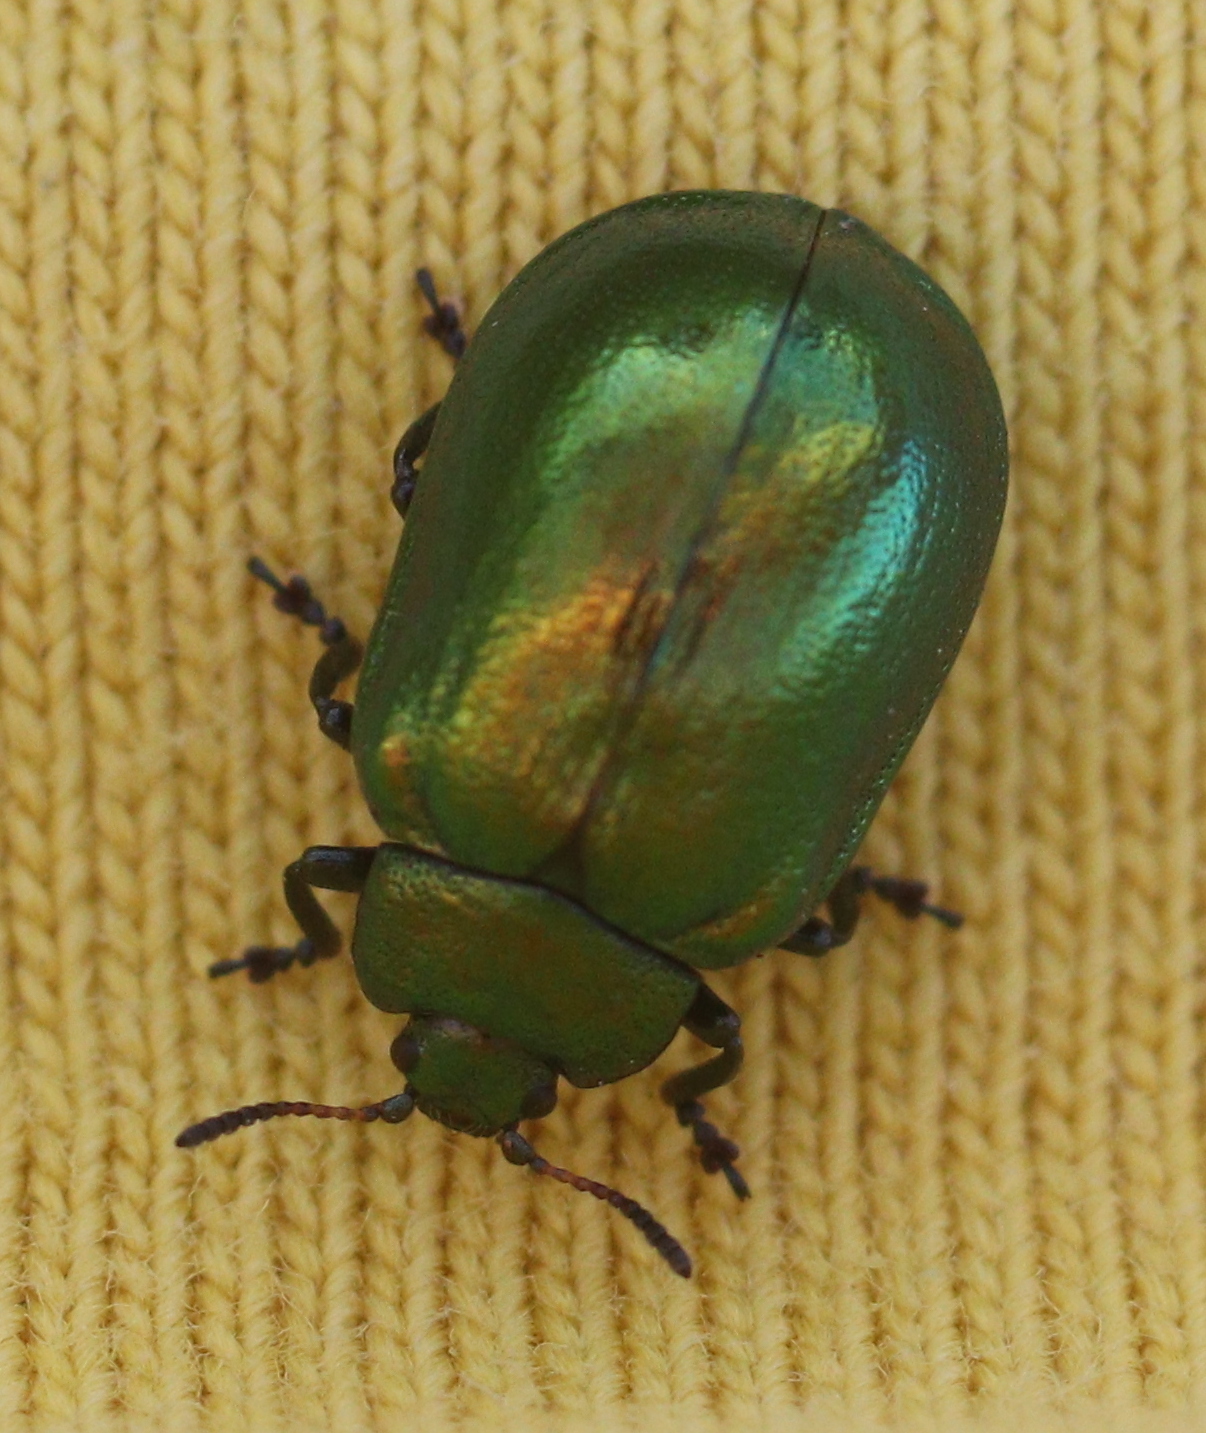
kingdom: Animalia
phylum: Arthropoda
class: Insecta
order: Coleoptera
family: Chrysomelidae
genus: Plagiosterna
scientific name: Plagiosterna aenea
